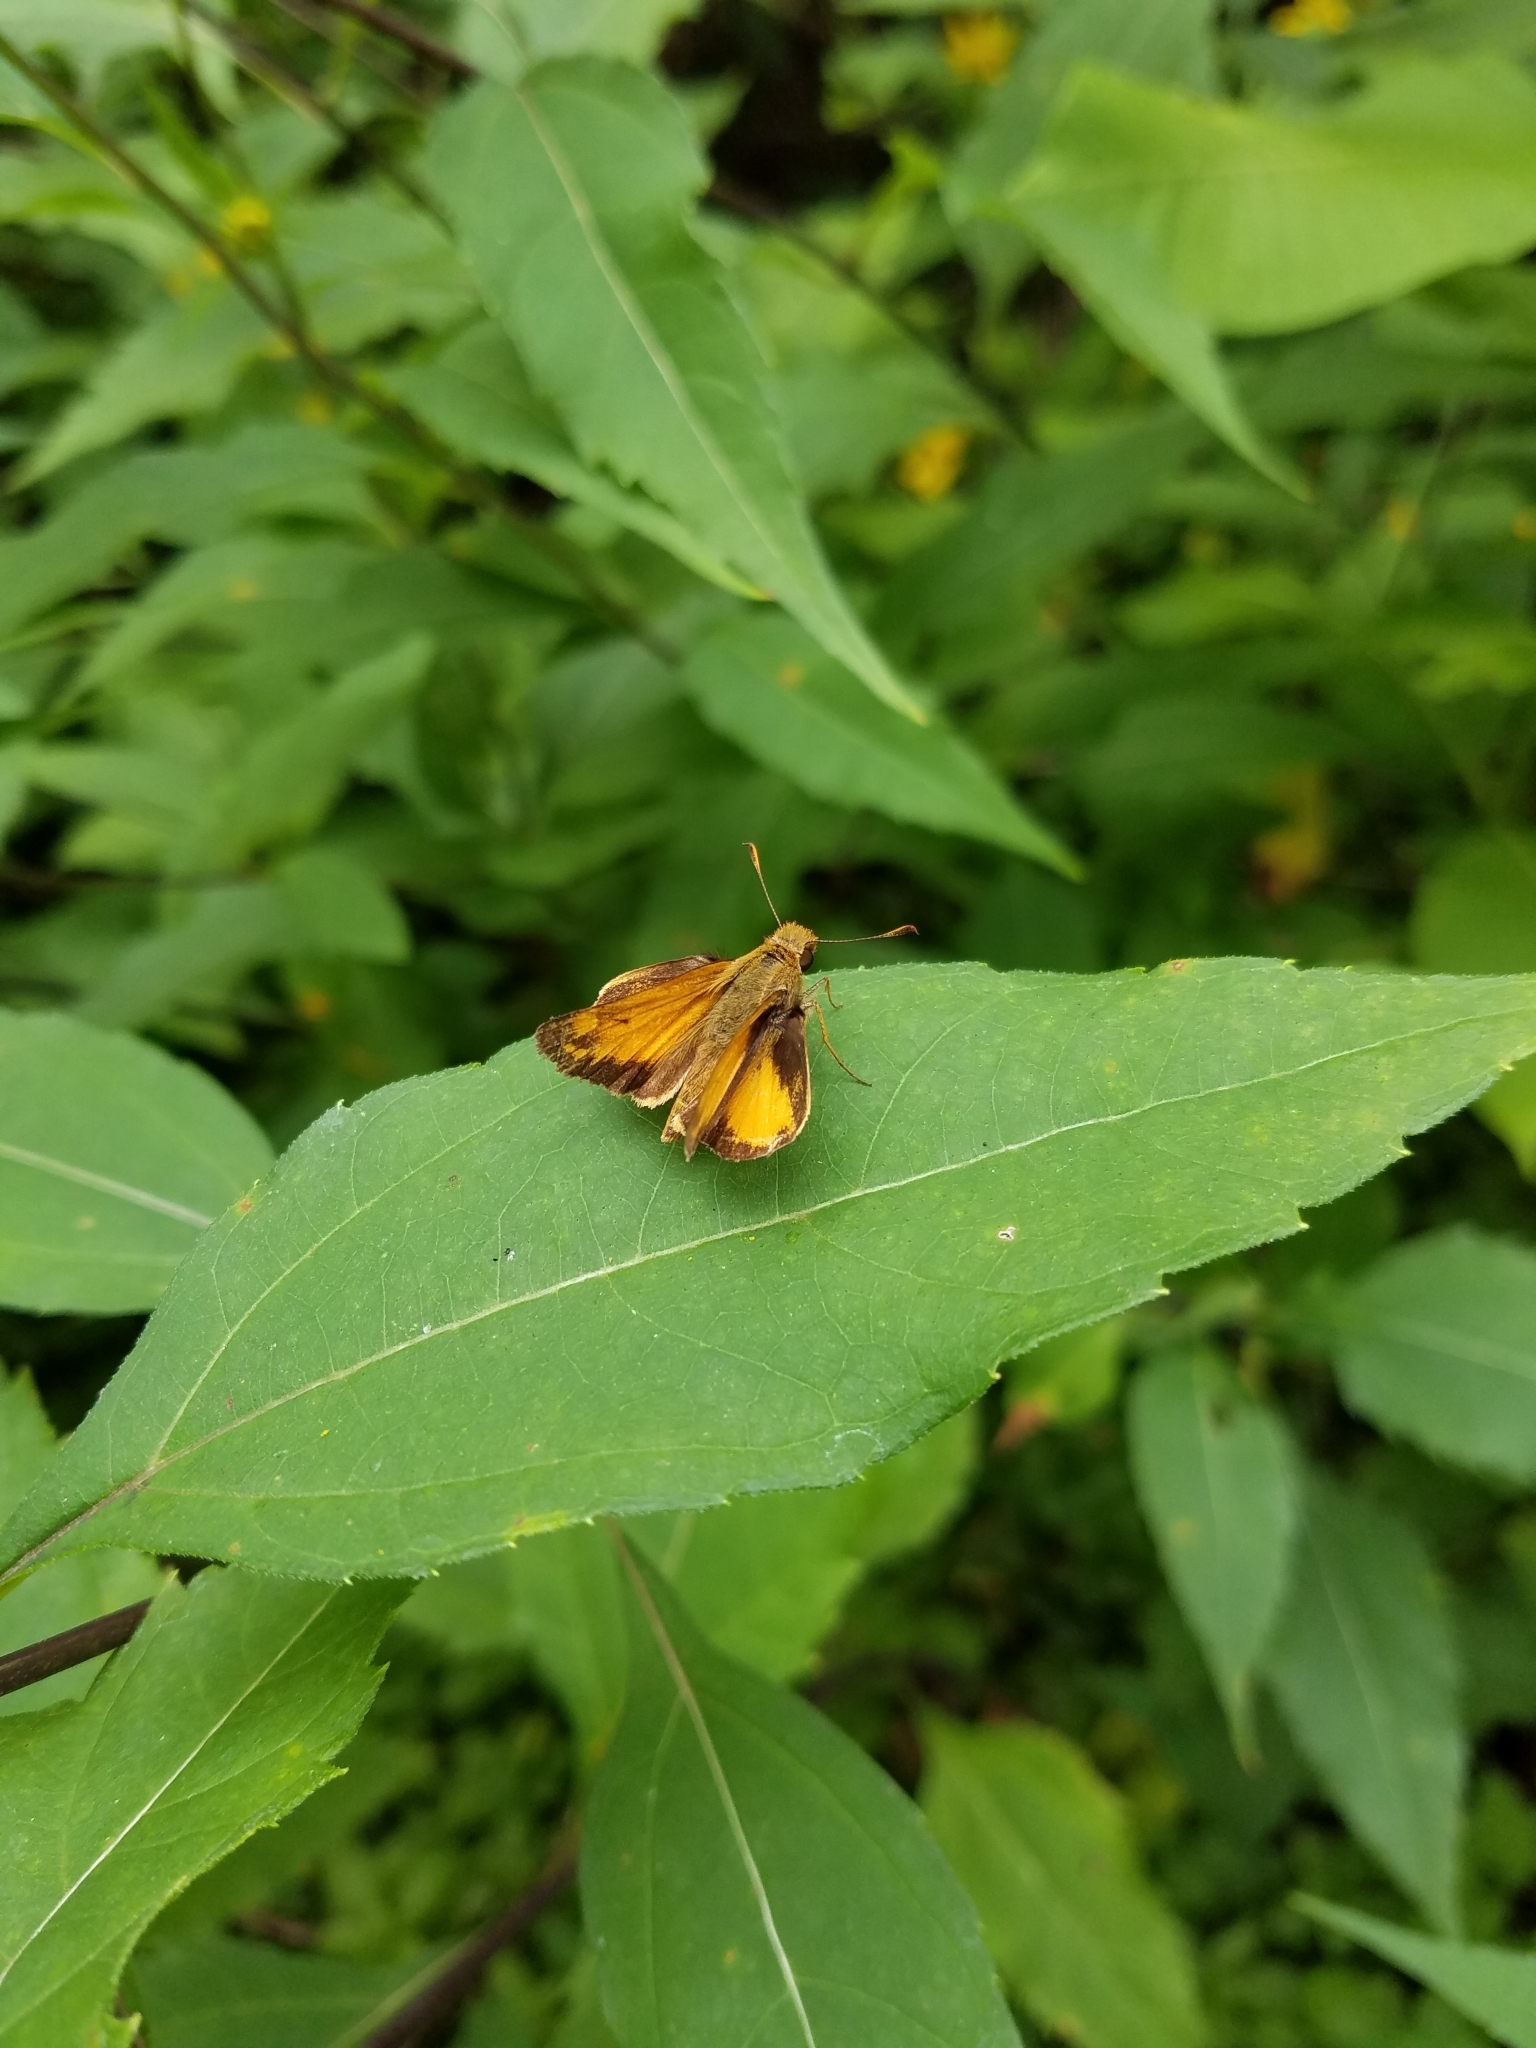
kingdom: Animalia
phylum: Arthropoda
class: Insecta
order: Lepidoptera
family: Hesperiidae
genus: Lon
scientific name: Lon zabulon
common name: Zabulon skipper
